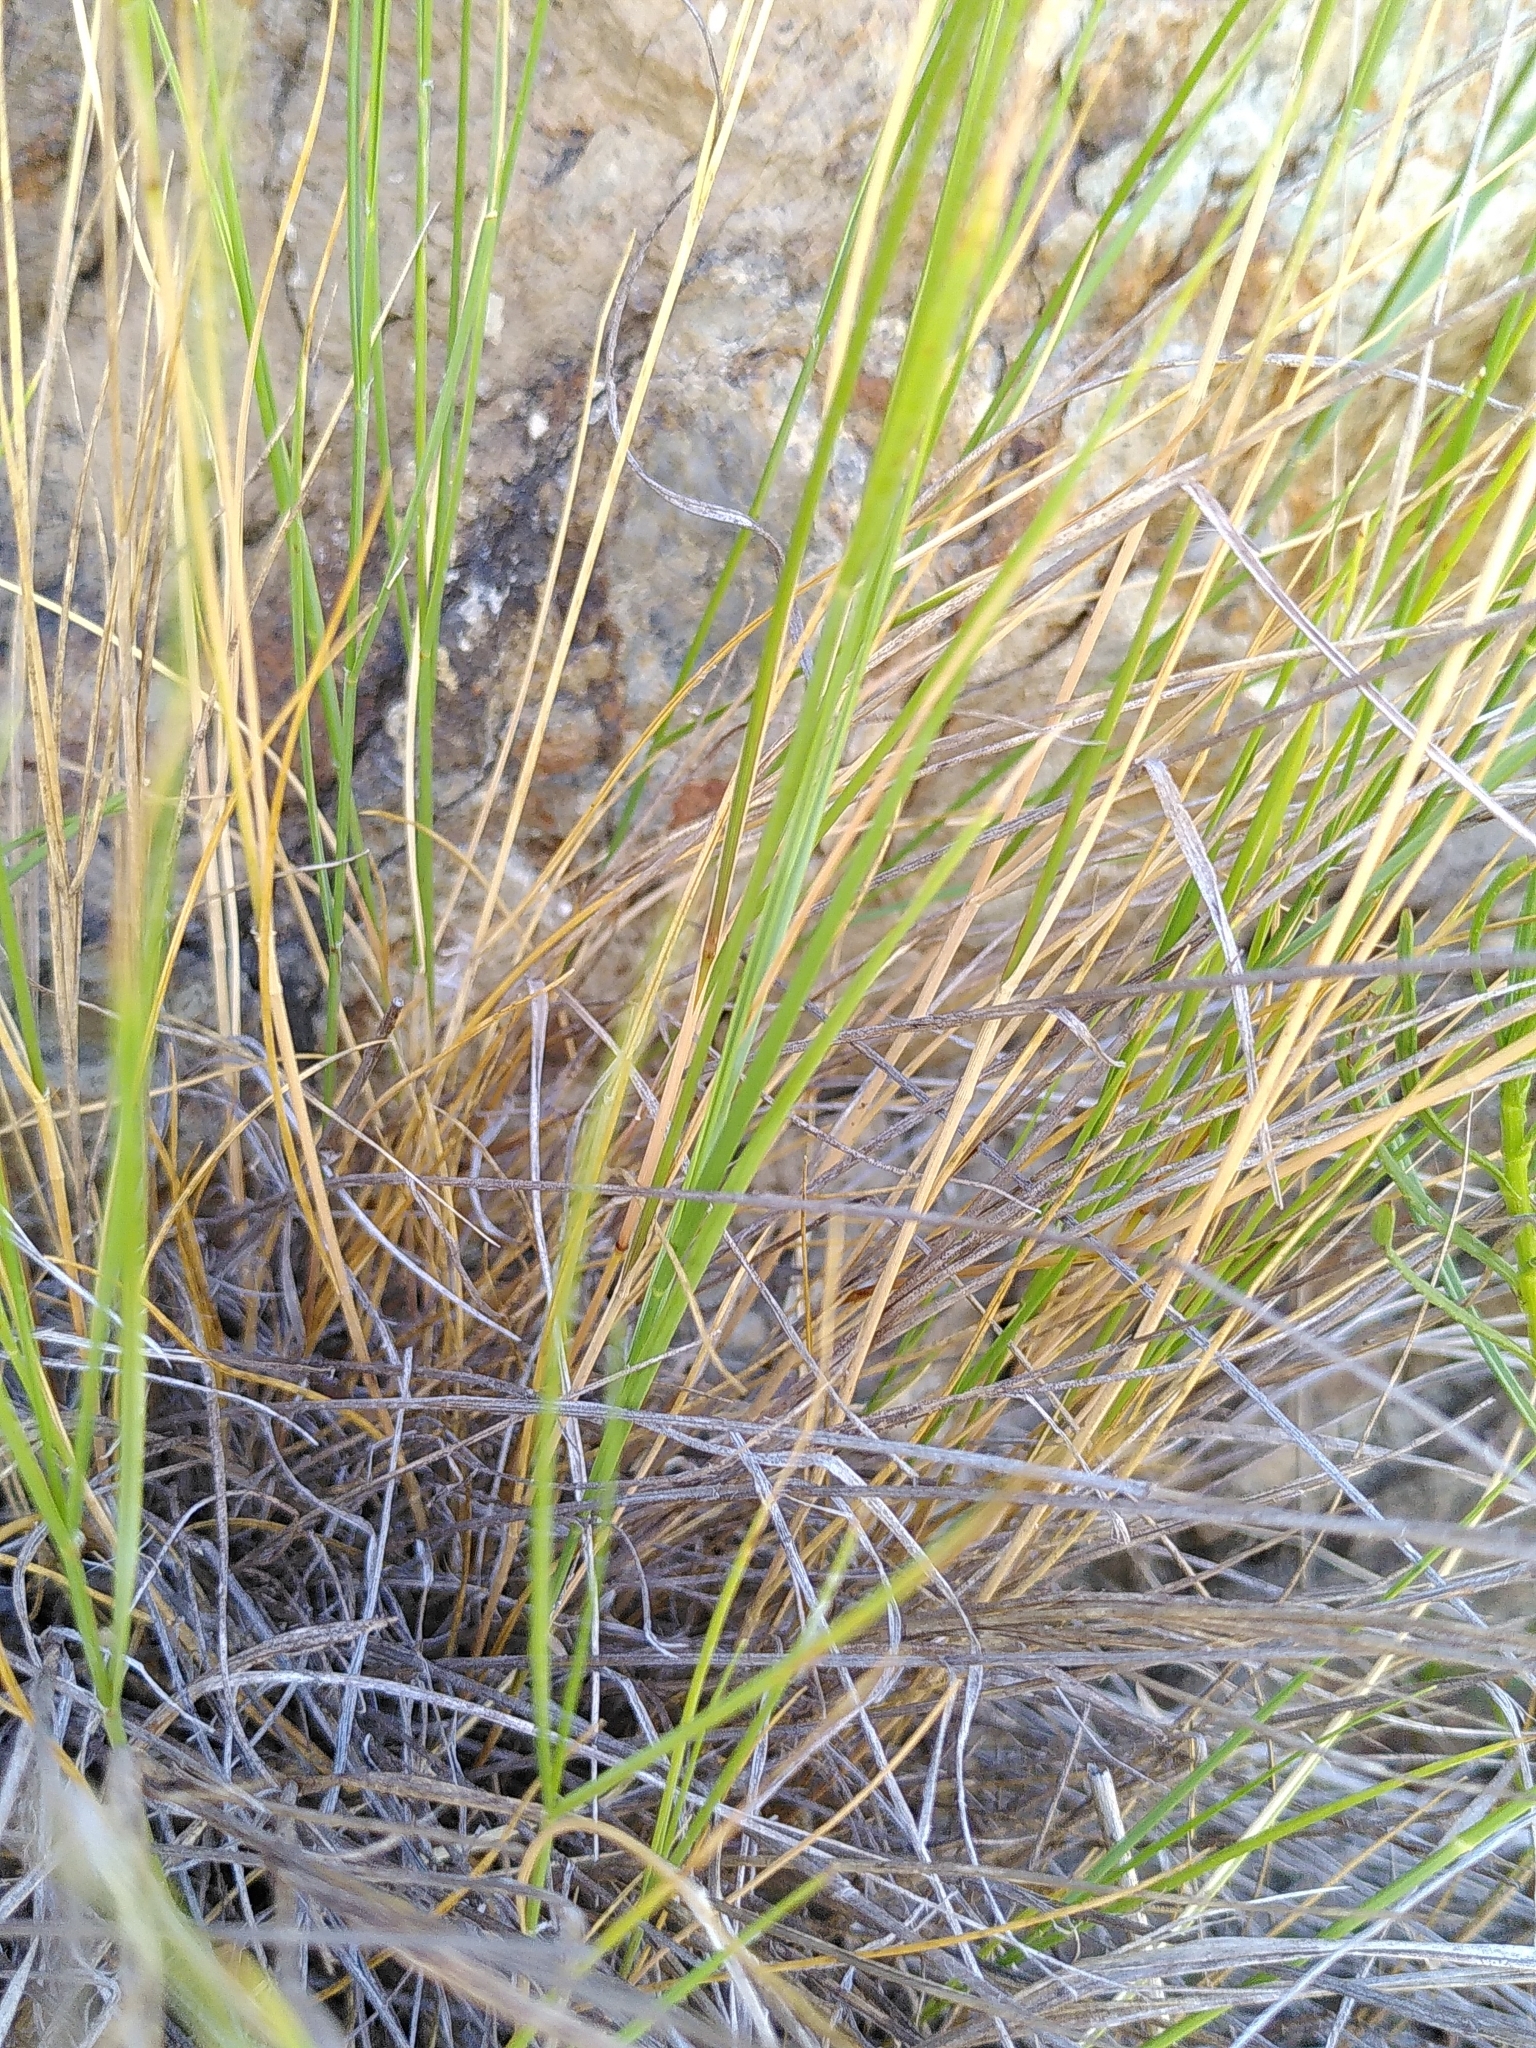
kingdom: Plantae
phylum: Tracheophyta
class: Liliopsida
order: Poales
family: Poaceae
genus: Melica
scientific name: Melica ciliata
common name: Hairy melicgrass
